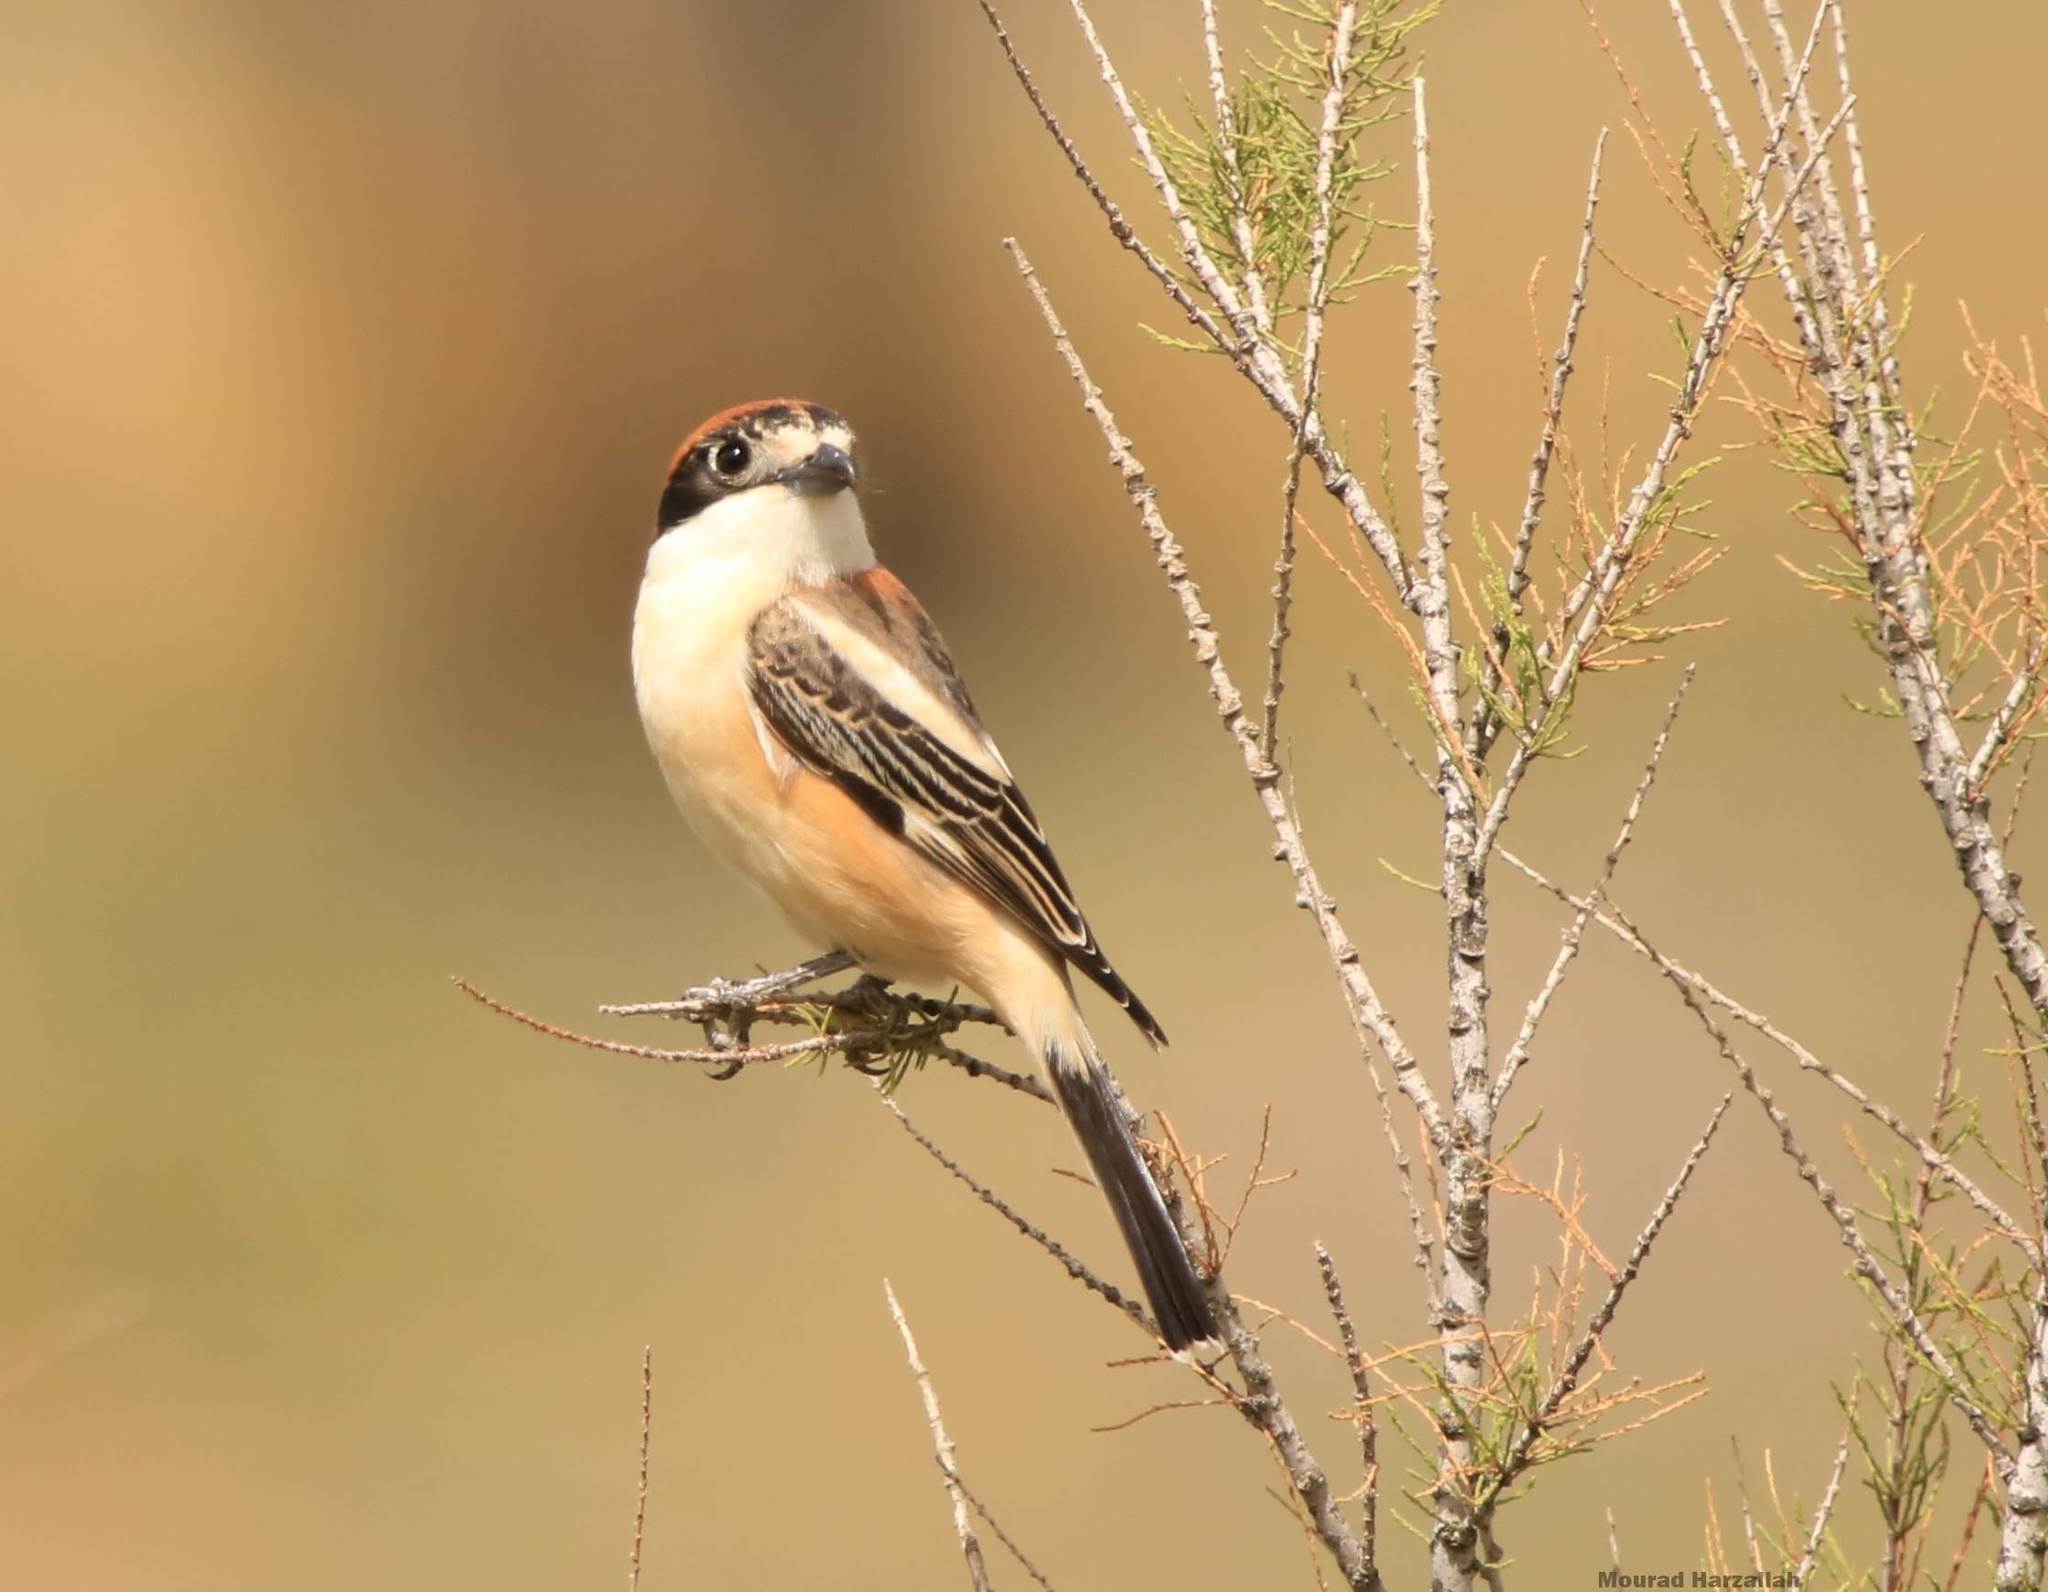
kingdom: Animalia
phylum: Chordata
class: Aves
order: Passeriformes
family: Laniidae
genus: Lanius
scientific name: Lanius senator
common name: Woodchat shrike
